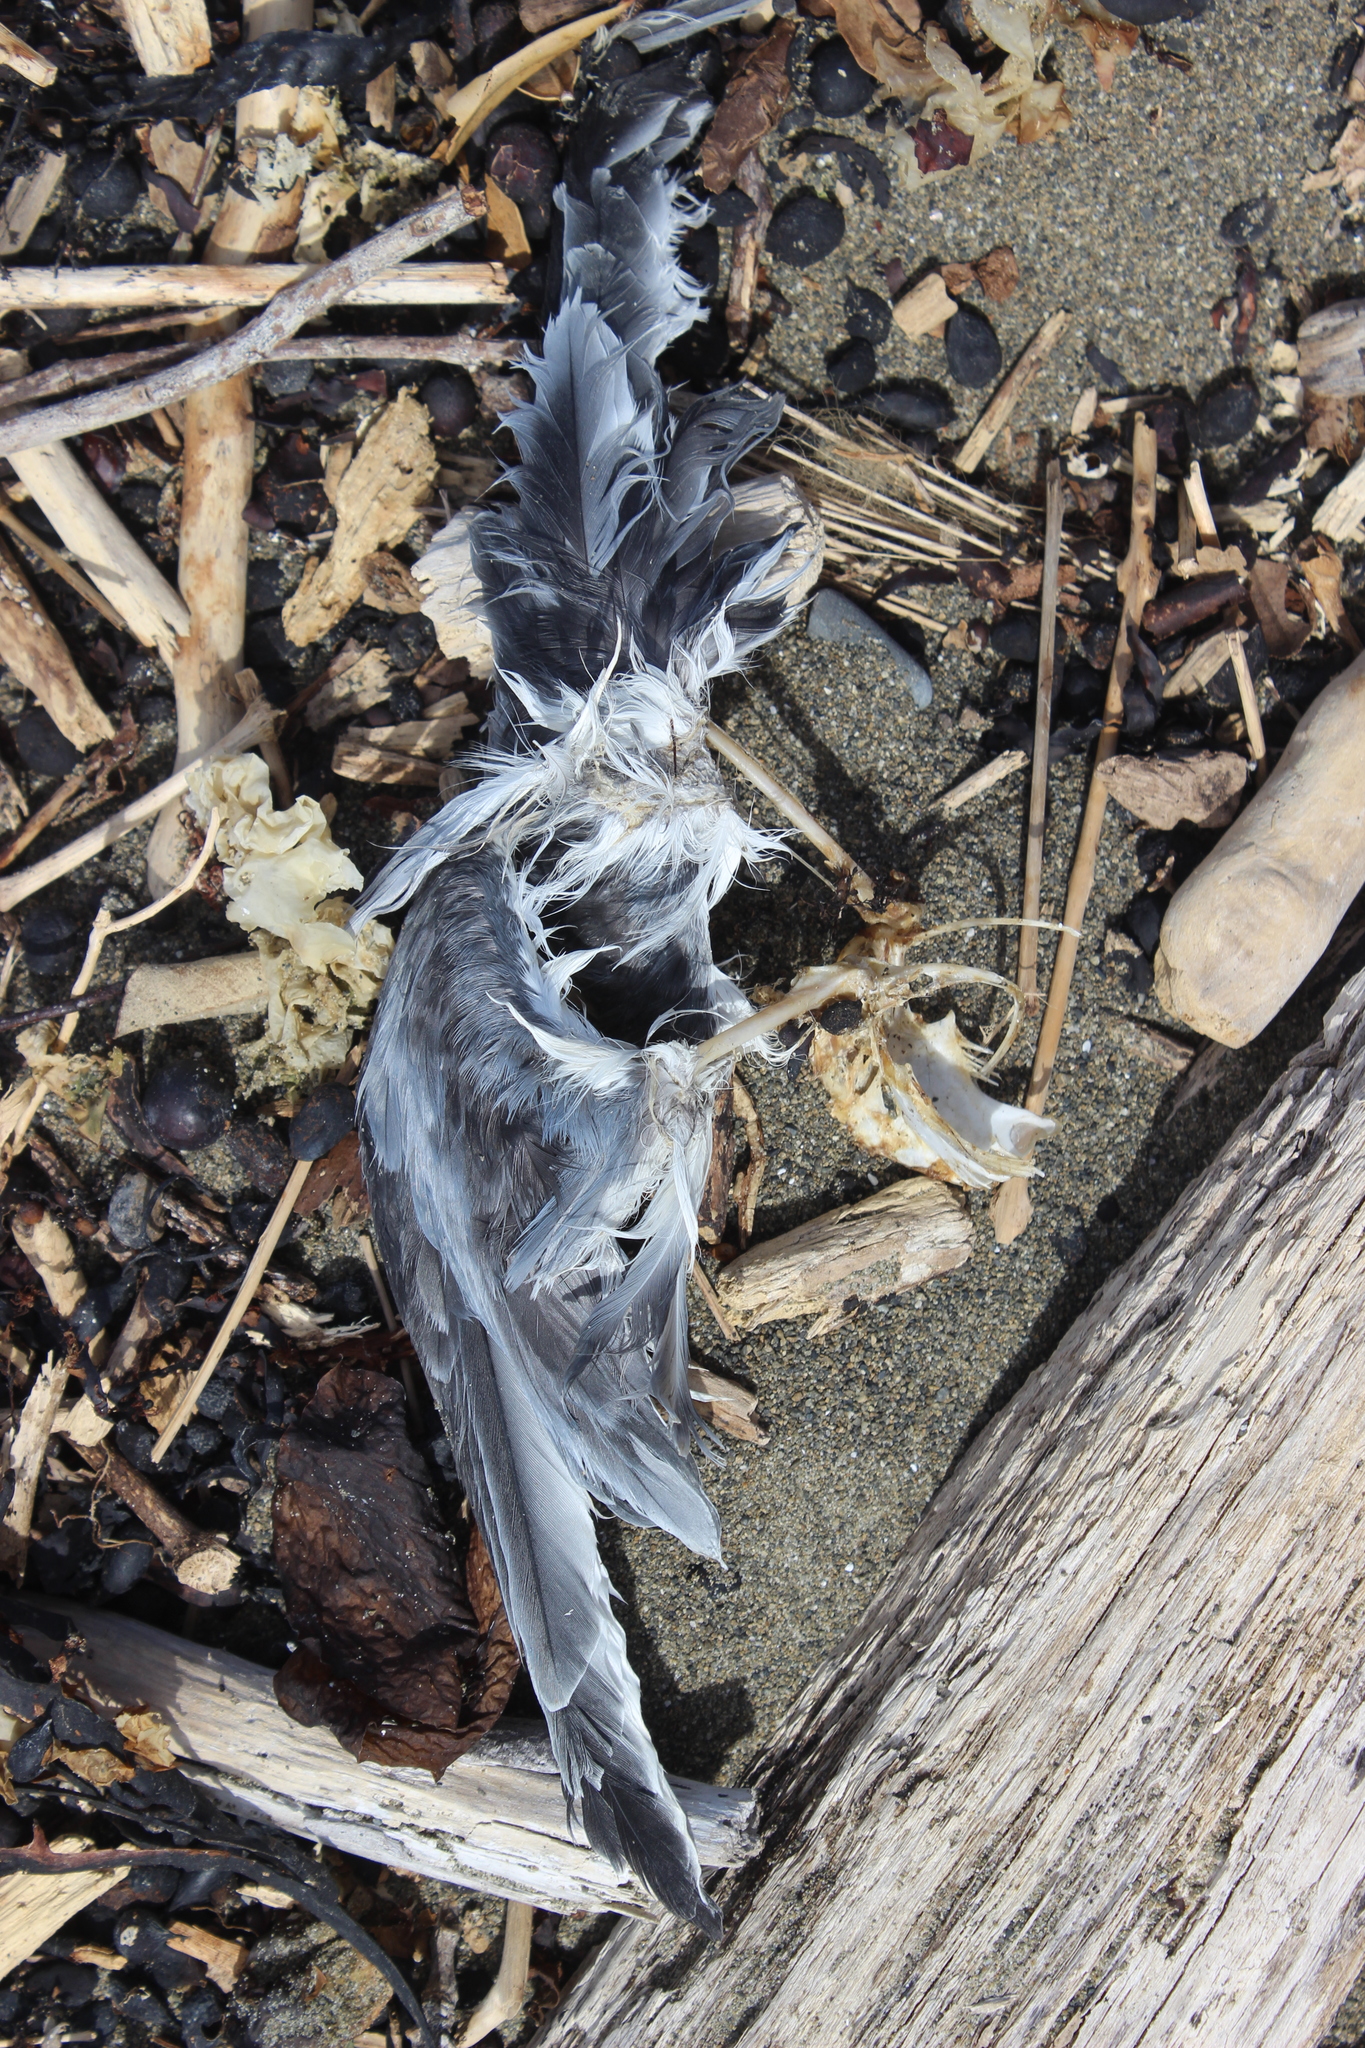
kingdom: Animalia
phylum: Chordata
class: Aves
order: Procellariiformes
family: Procellariidae
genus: Pachyptila
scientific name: Pachyptila turtur
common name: Fairy prion
